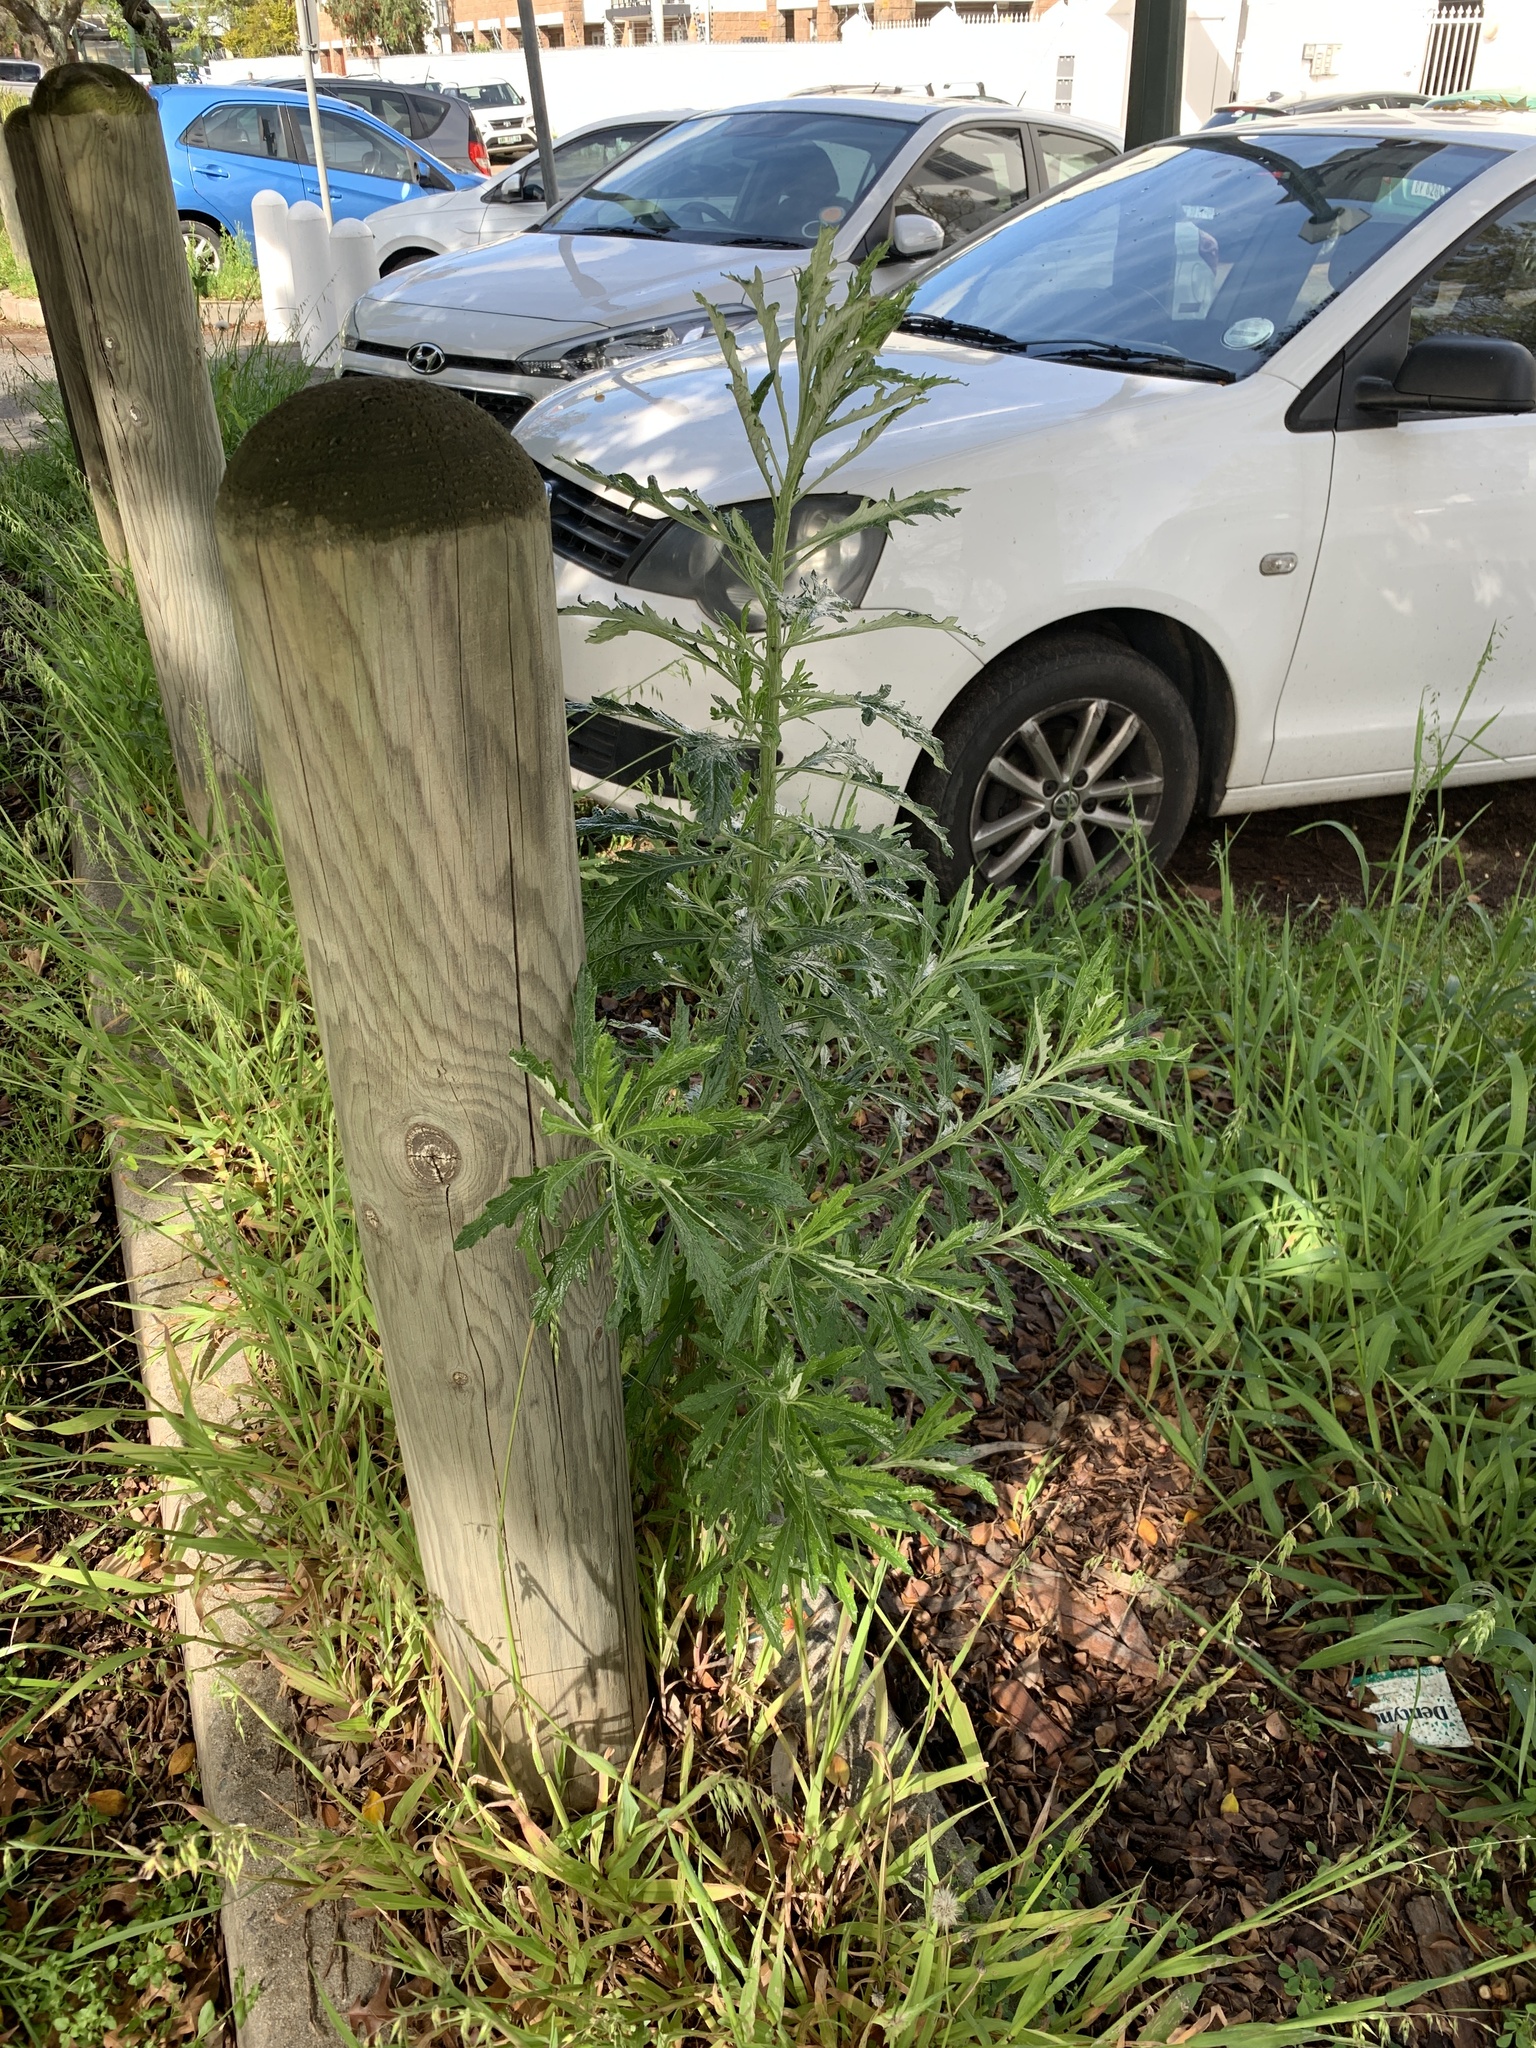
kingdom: Plantae
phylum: Tracheophyta
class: Magnoliopsida
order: Asterales
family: Asteraceae
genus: Senecio
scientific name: Senecio pterophorus
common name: Shoddy ragwort
